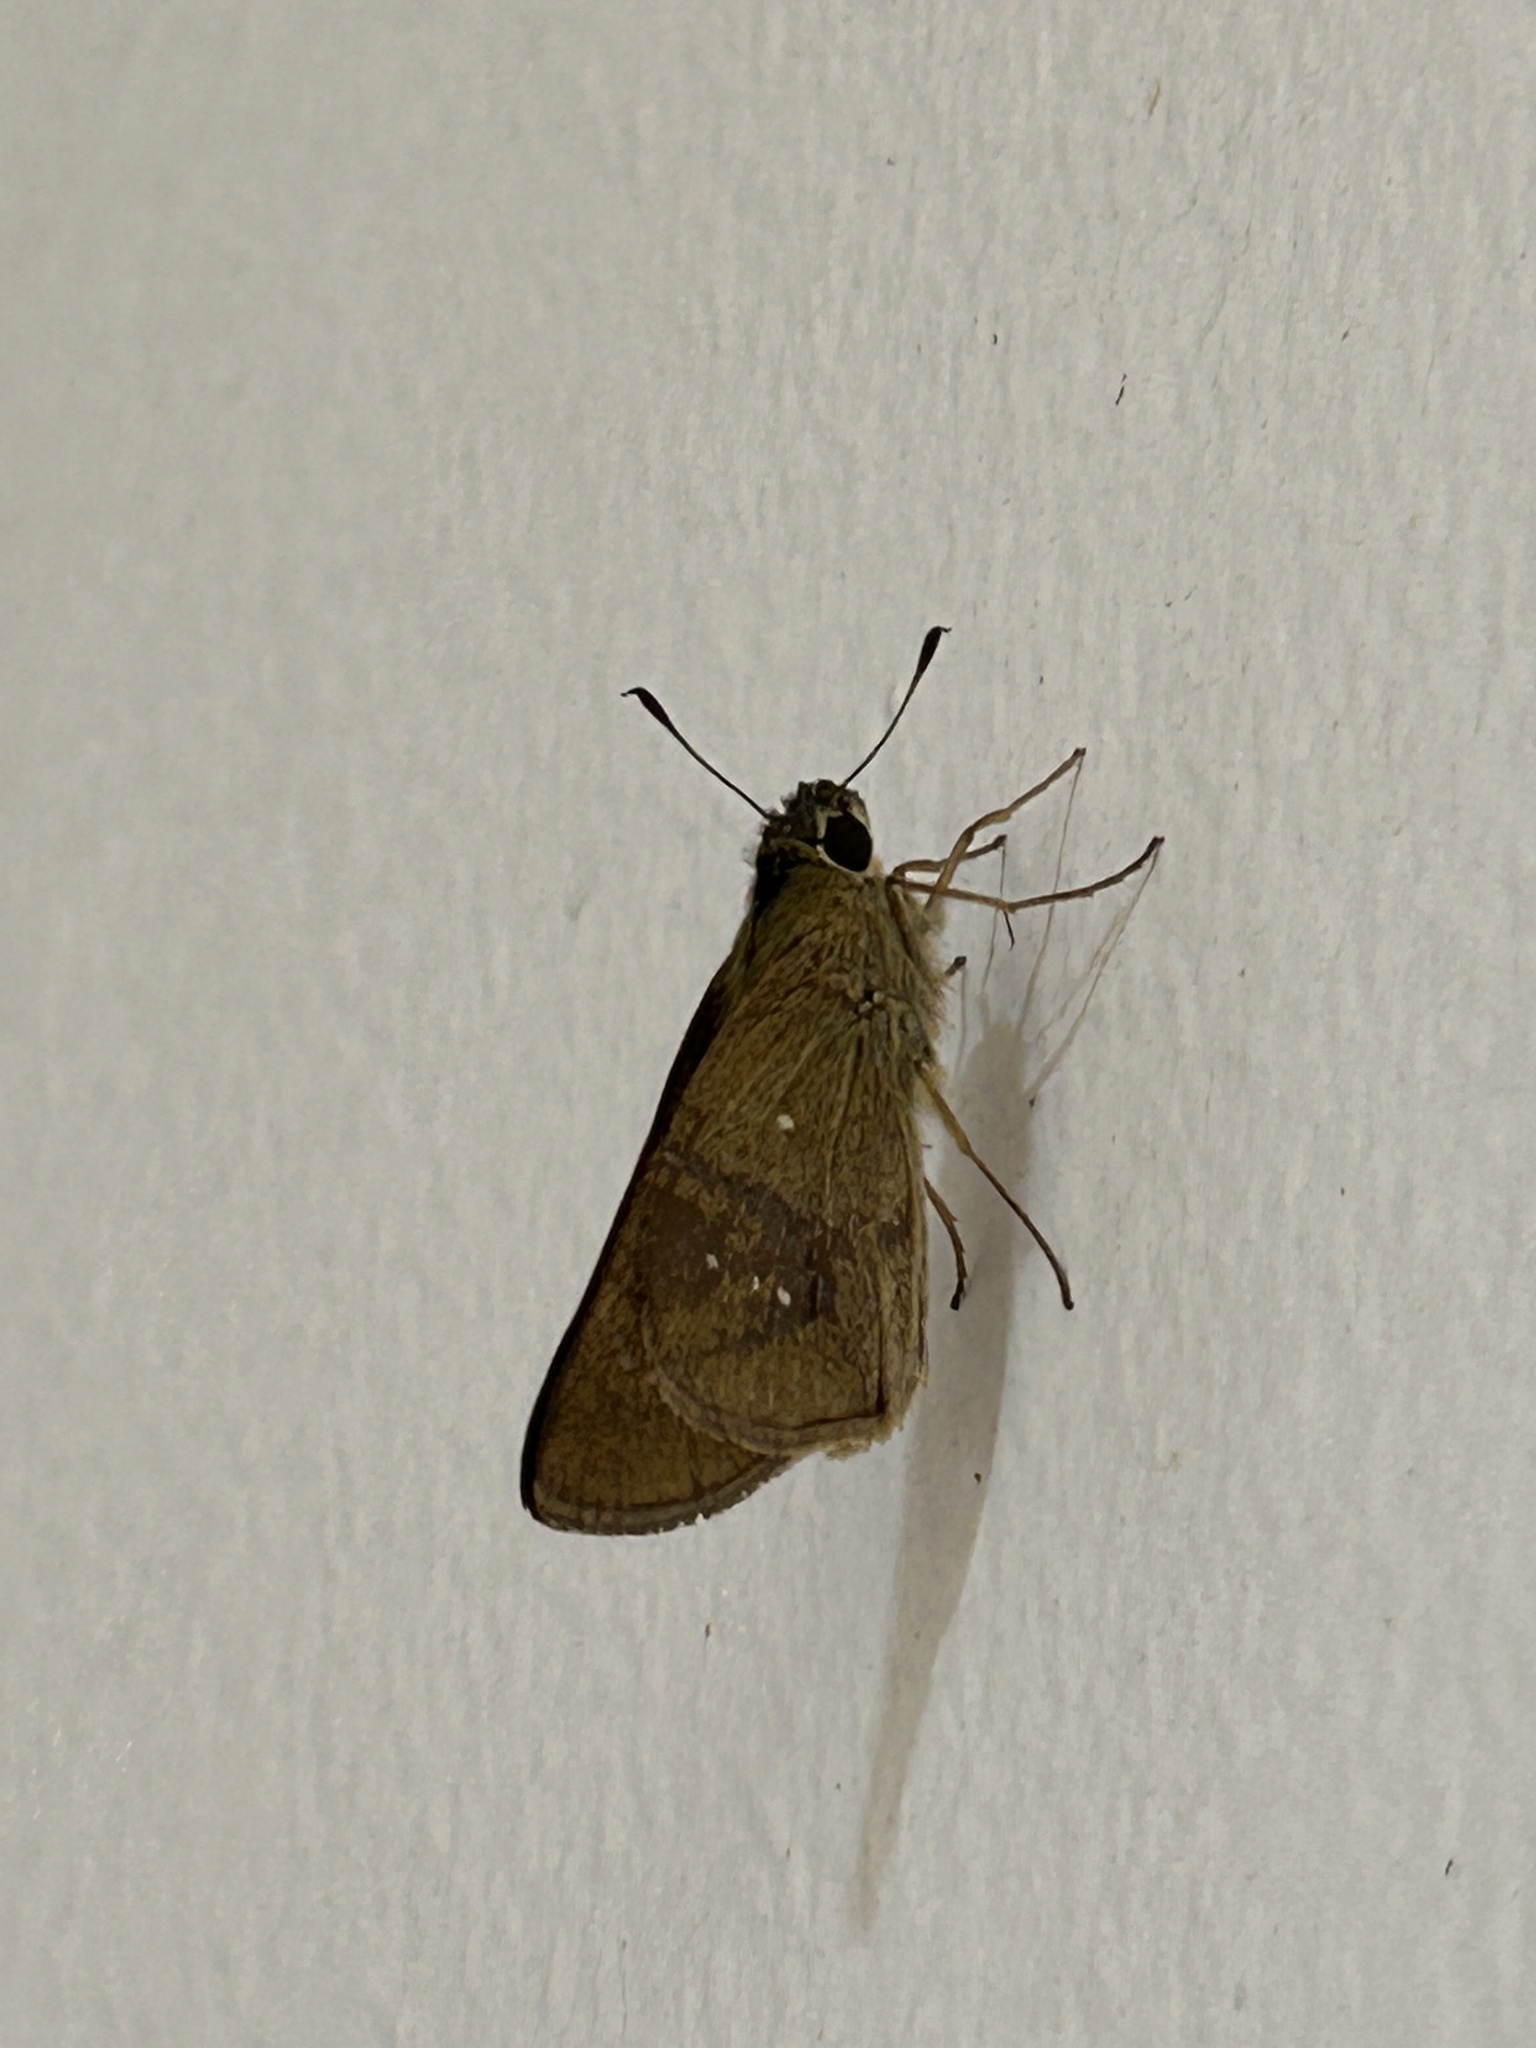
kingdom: Animalia
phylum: Arthropoda
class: Insecta
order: Lepidoptera
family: Hesperiidae
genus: Borbo
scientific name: Borbo cinnara
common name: Formosan swift
